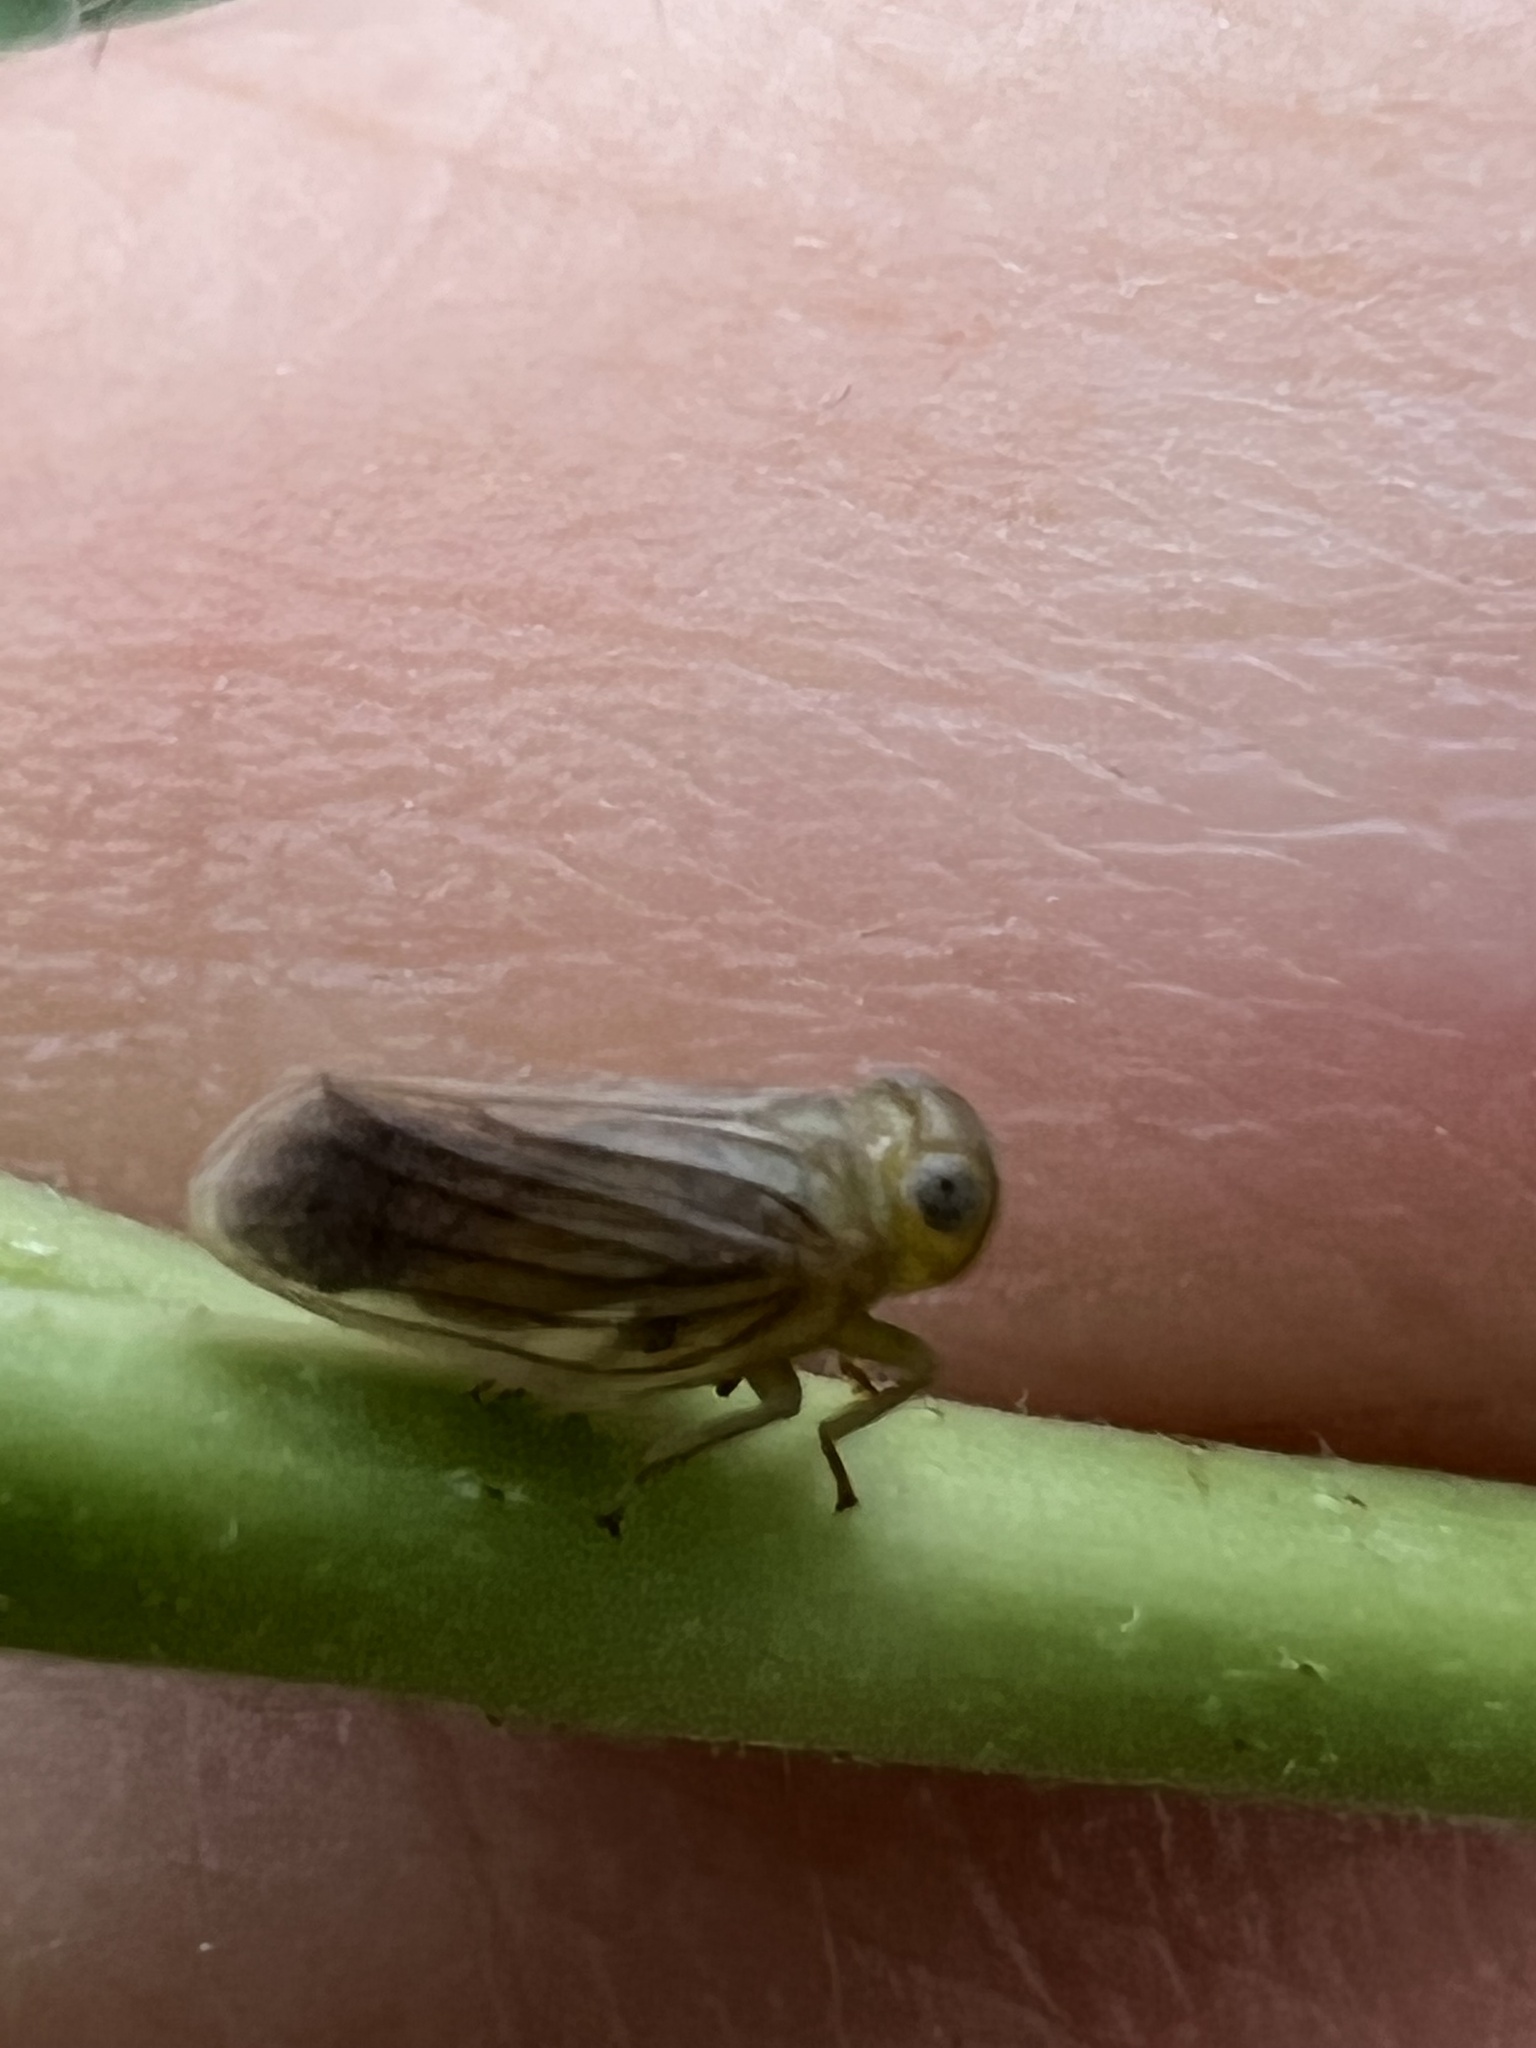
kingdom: Animalia
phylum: Arthropoda
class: Insecta
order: Hemiptera
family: Issidae
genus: Aplos
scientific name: Aplos simplex
